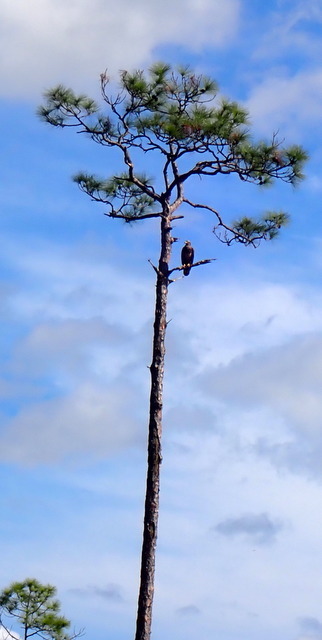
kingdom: Animalia
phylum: Chordata
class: Aves
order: Accipitriformes
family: Accipitridae
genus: Haliaeetus
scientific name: Haliaeetus leucocephalus
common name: Bald eagle
